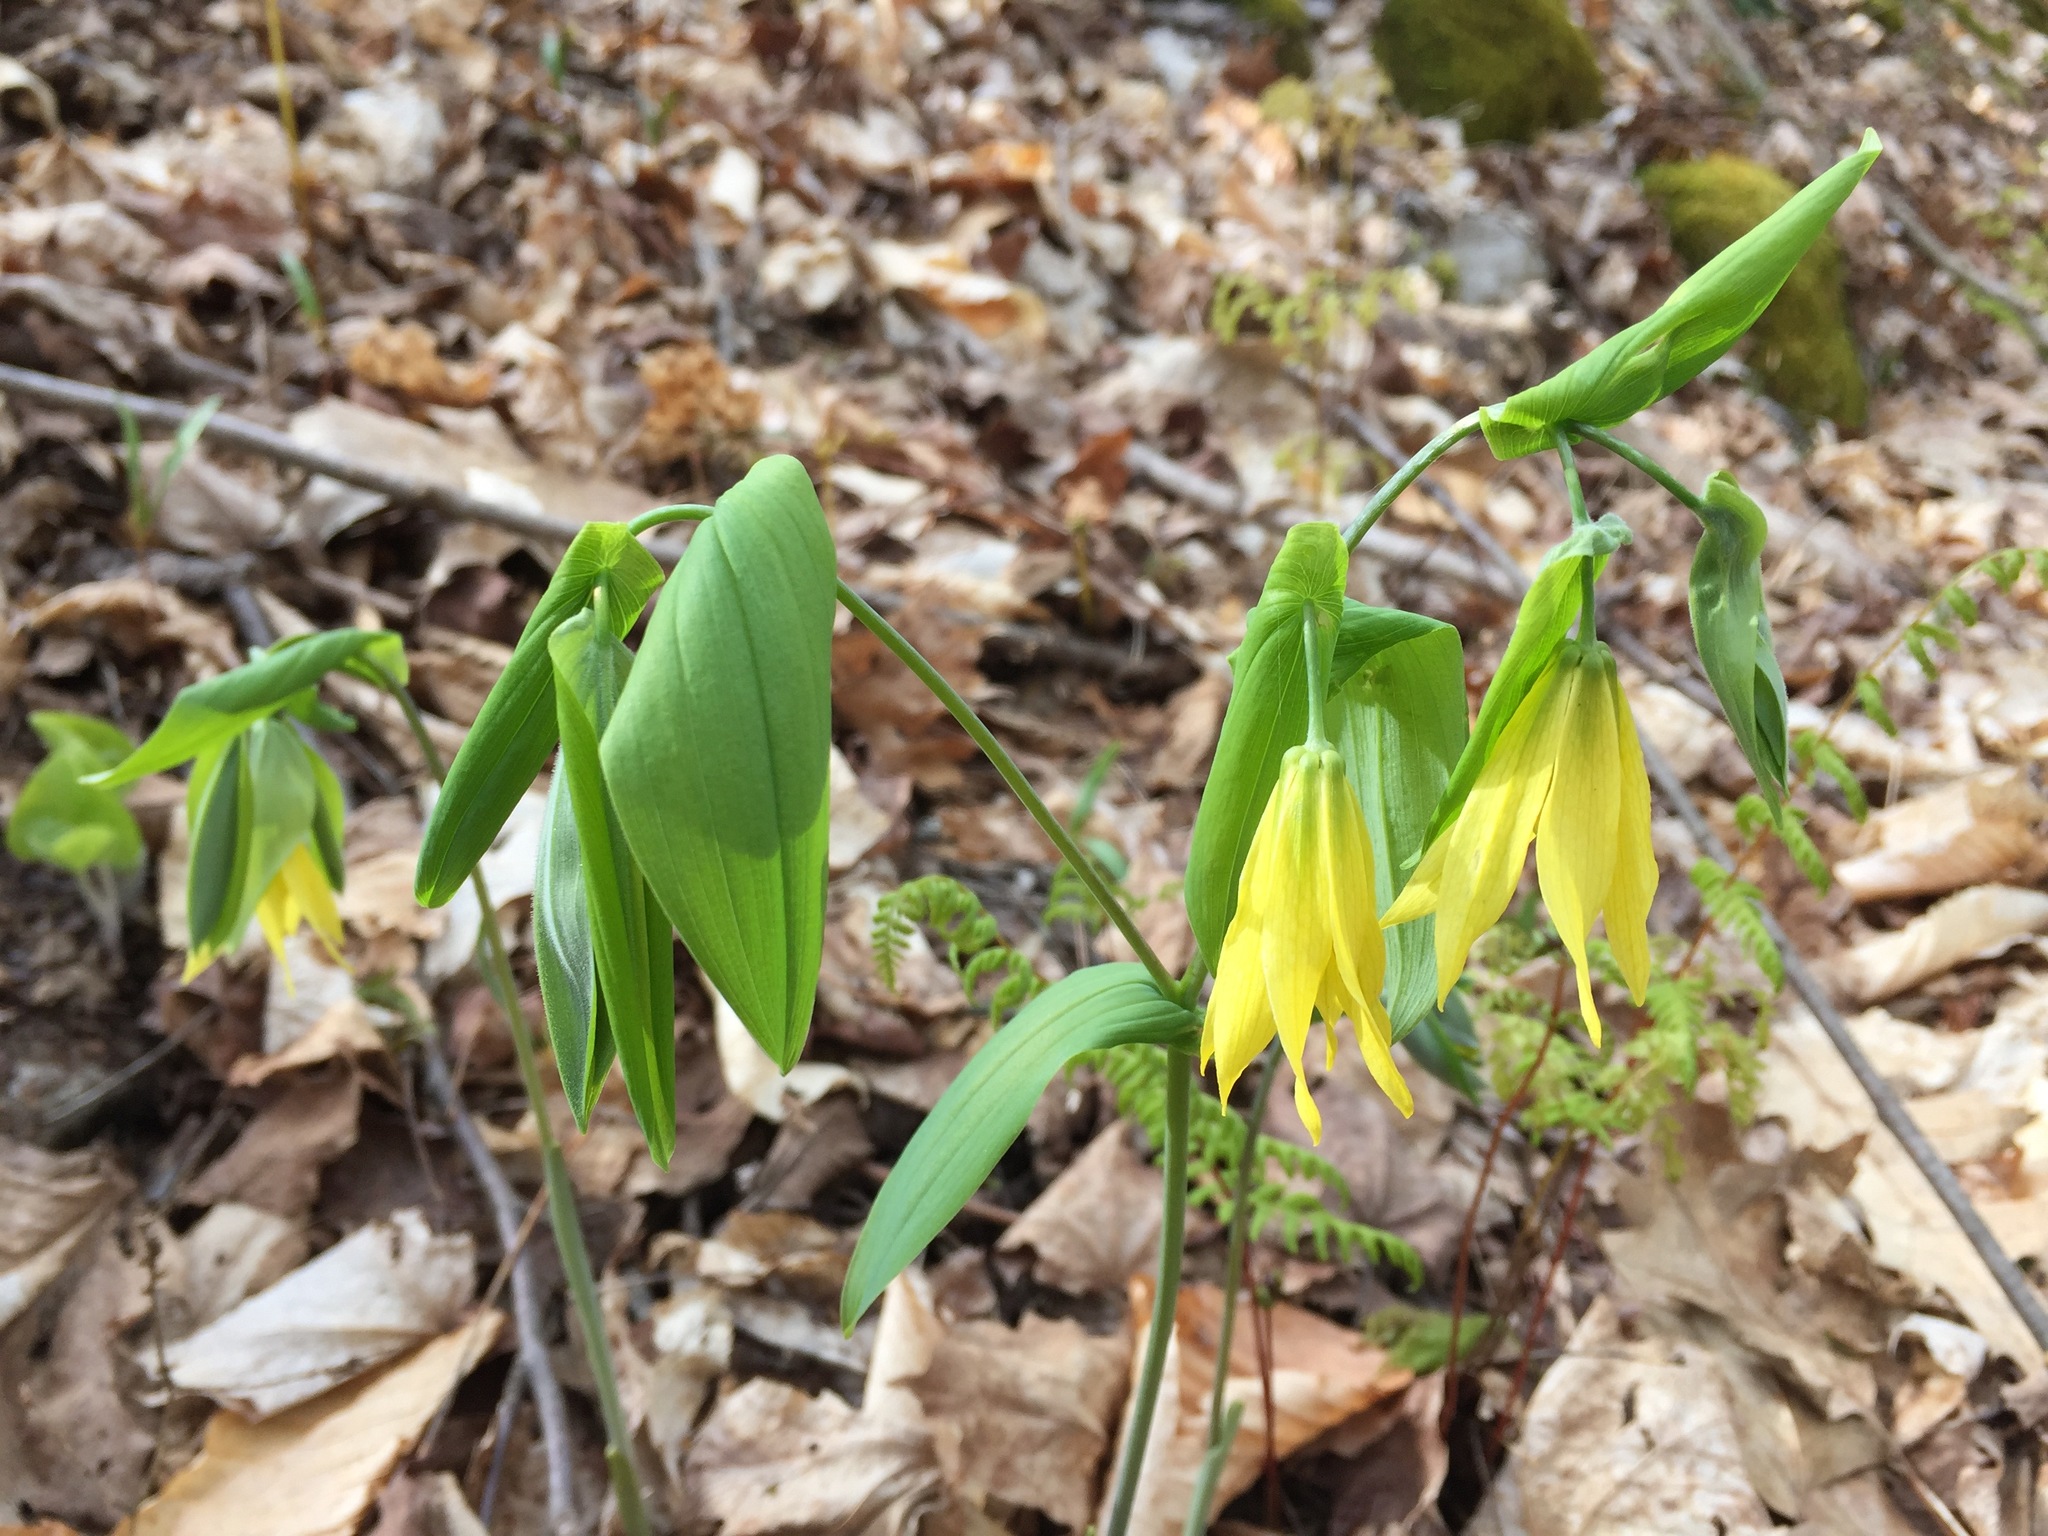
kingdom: Plantae
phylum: Tracheophyta
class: Liliopsida
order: Liliales
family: Colchicaceae
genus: Uvularia
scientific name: Uvularia grandiflora
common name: Bellwort
